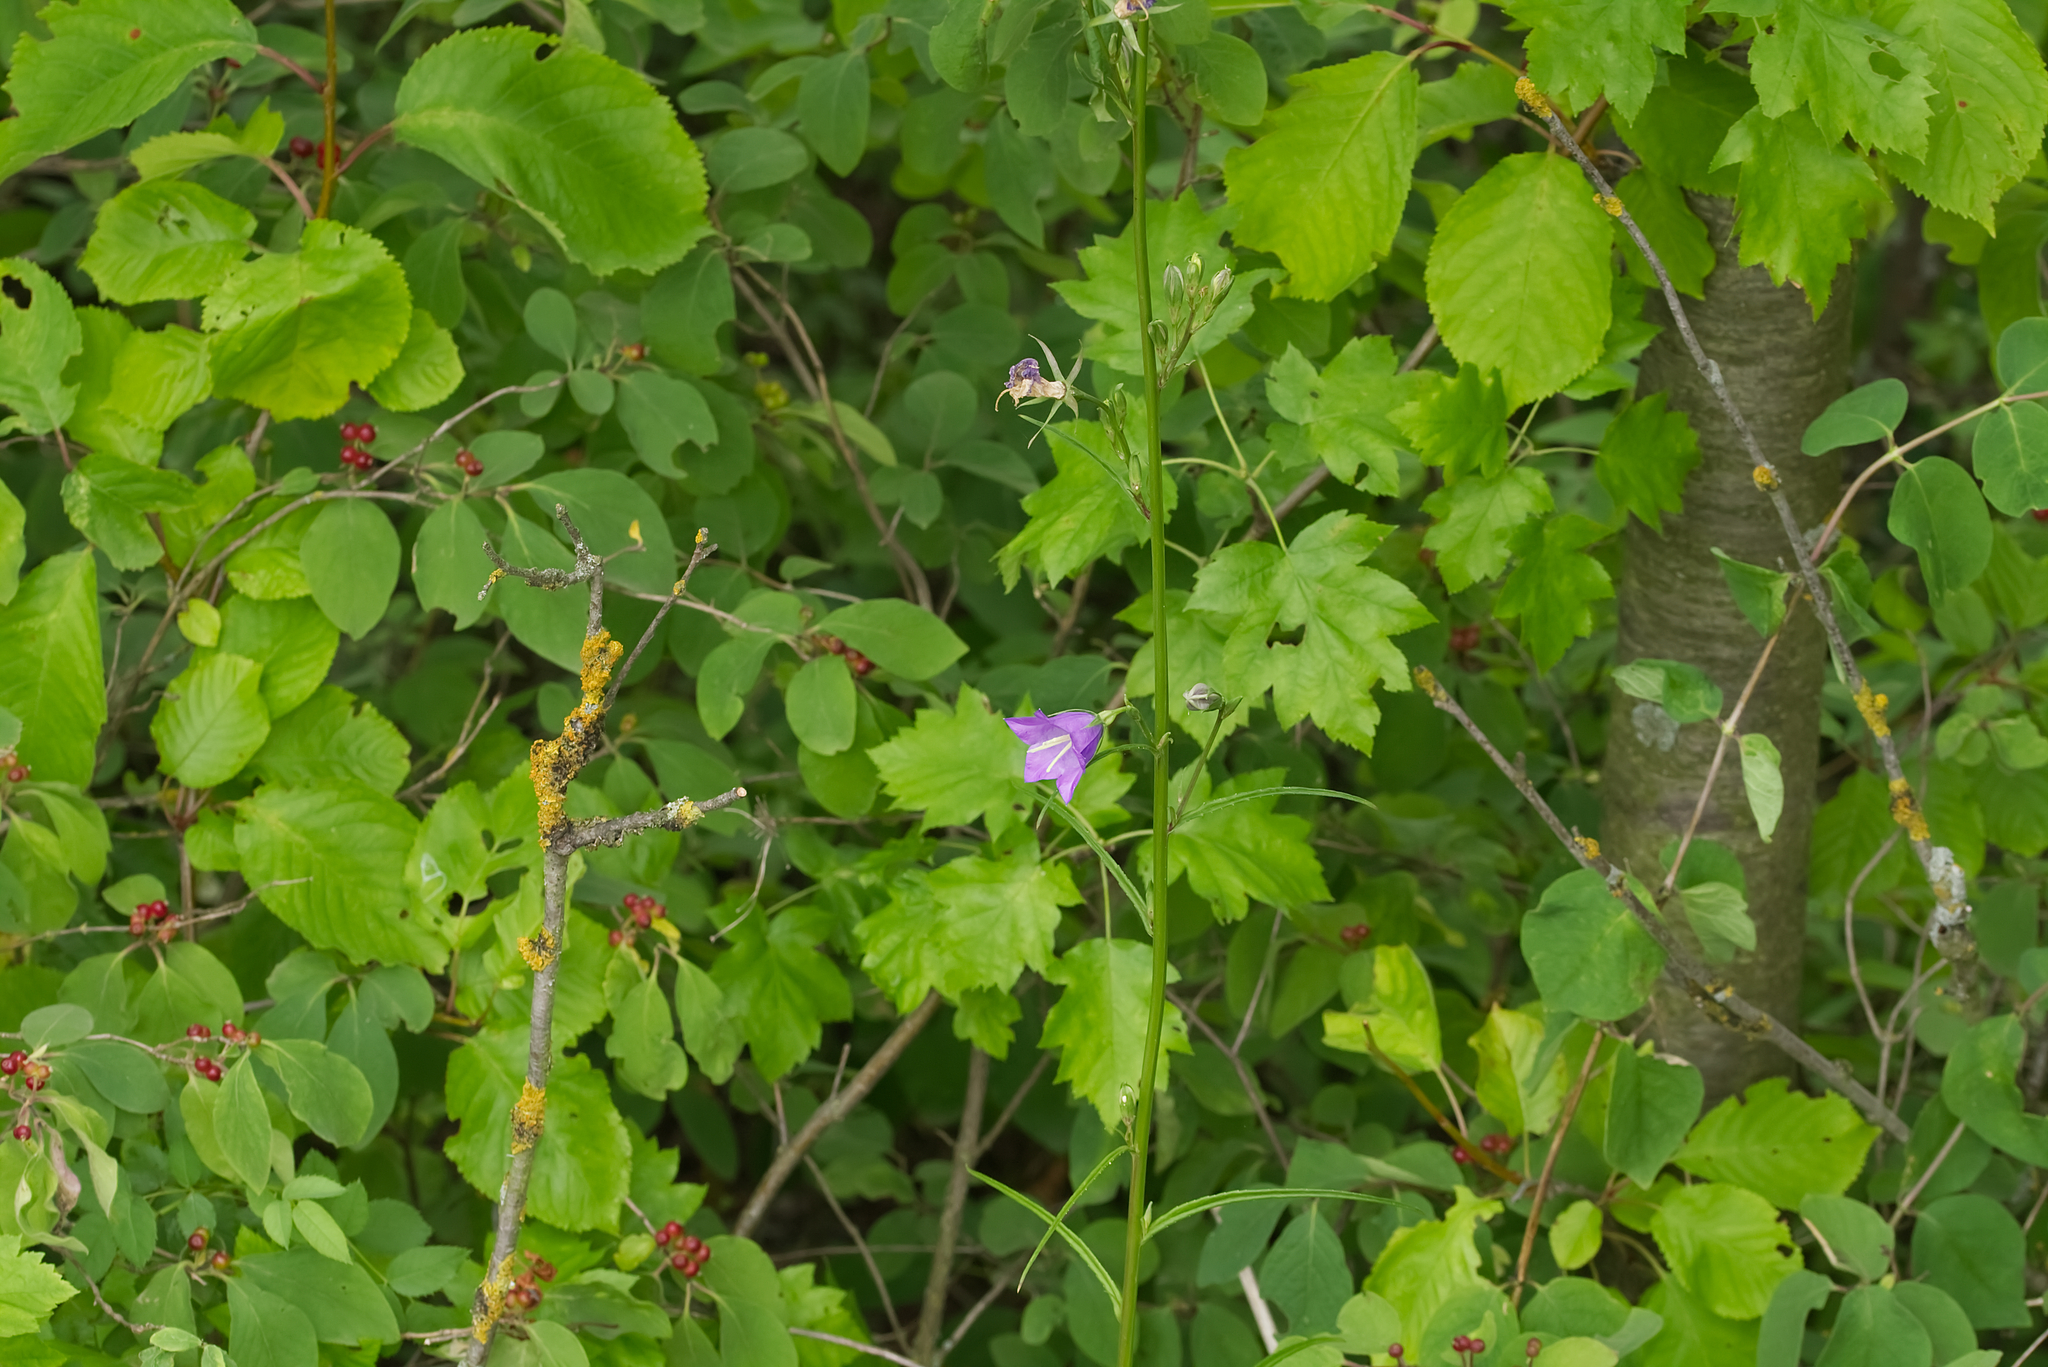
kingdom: Plantae
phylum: Tracheophyta
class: Magnoliopsida
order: Rosales
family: Rosaceae
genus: Torminalis
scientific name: Torminalis glaberrima
